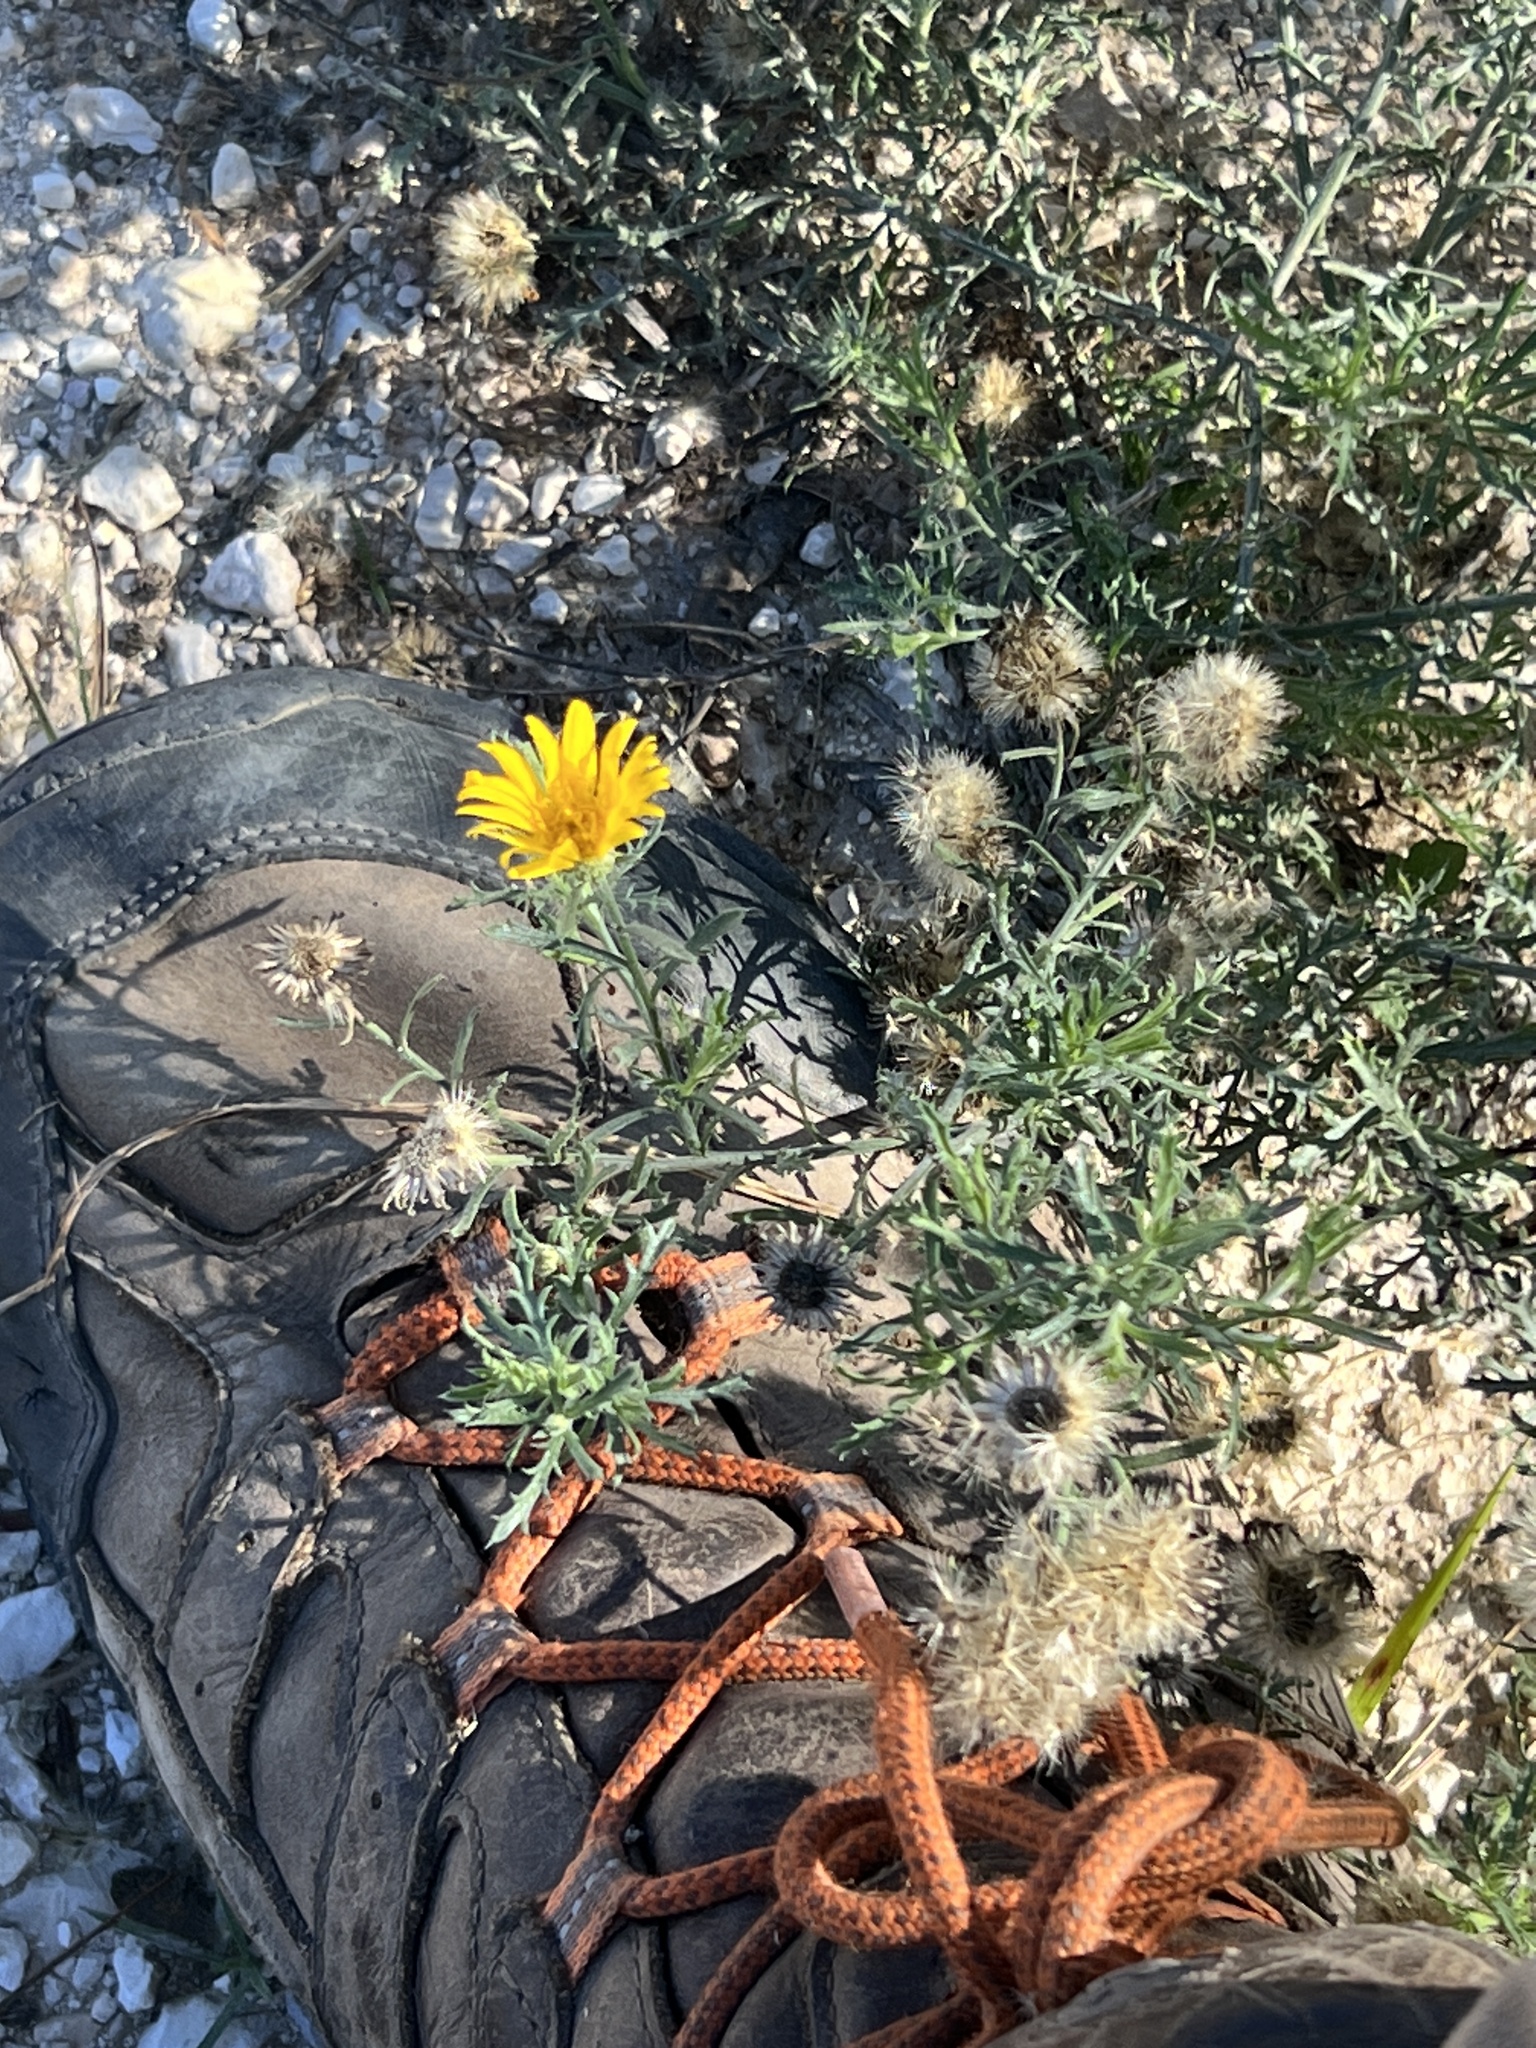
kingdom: Plantae
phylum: Tracheophyta
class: Magnoliopsida
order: Asterales
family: Asteraceae
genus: Xanthisma
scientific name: Xanthisma spinulosum
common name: Spiny goldenweed
